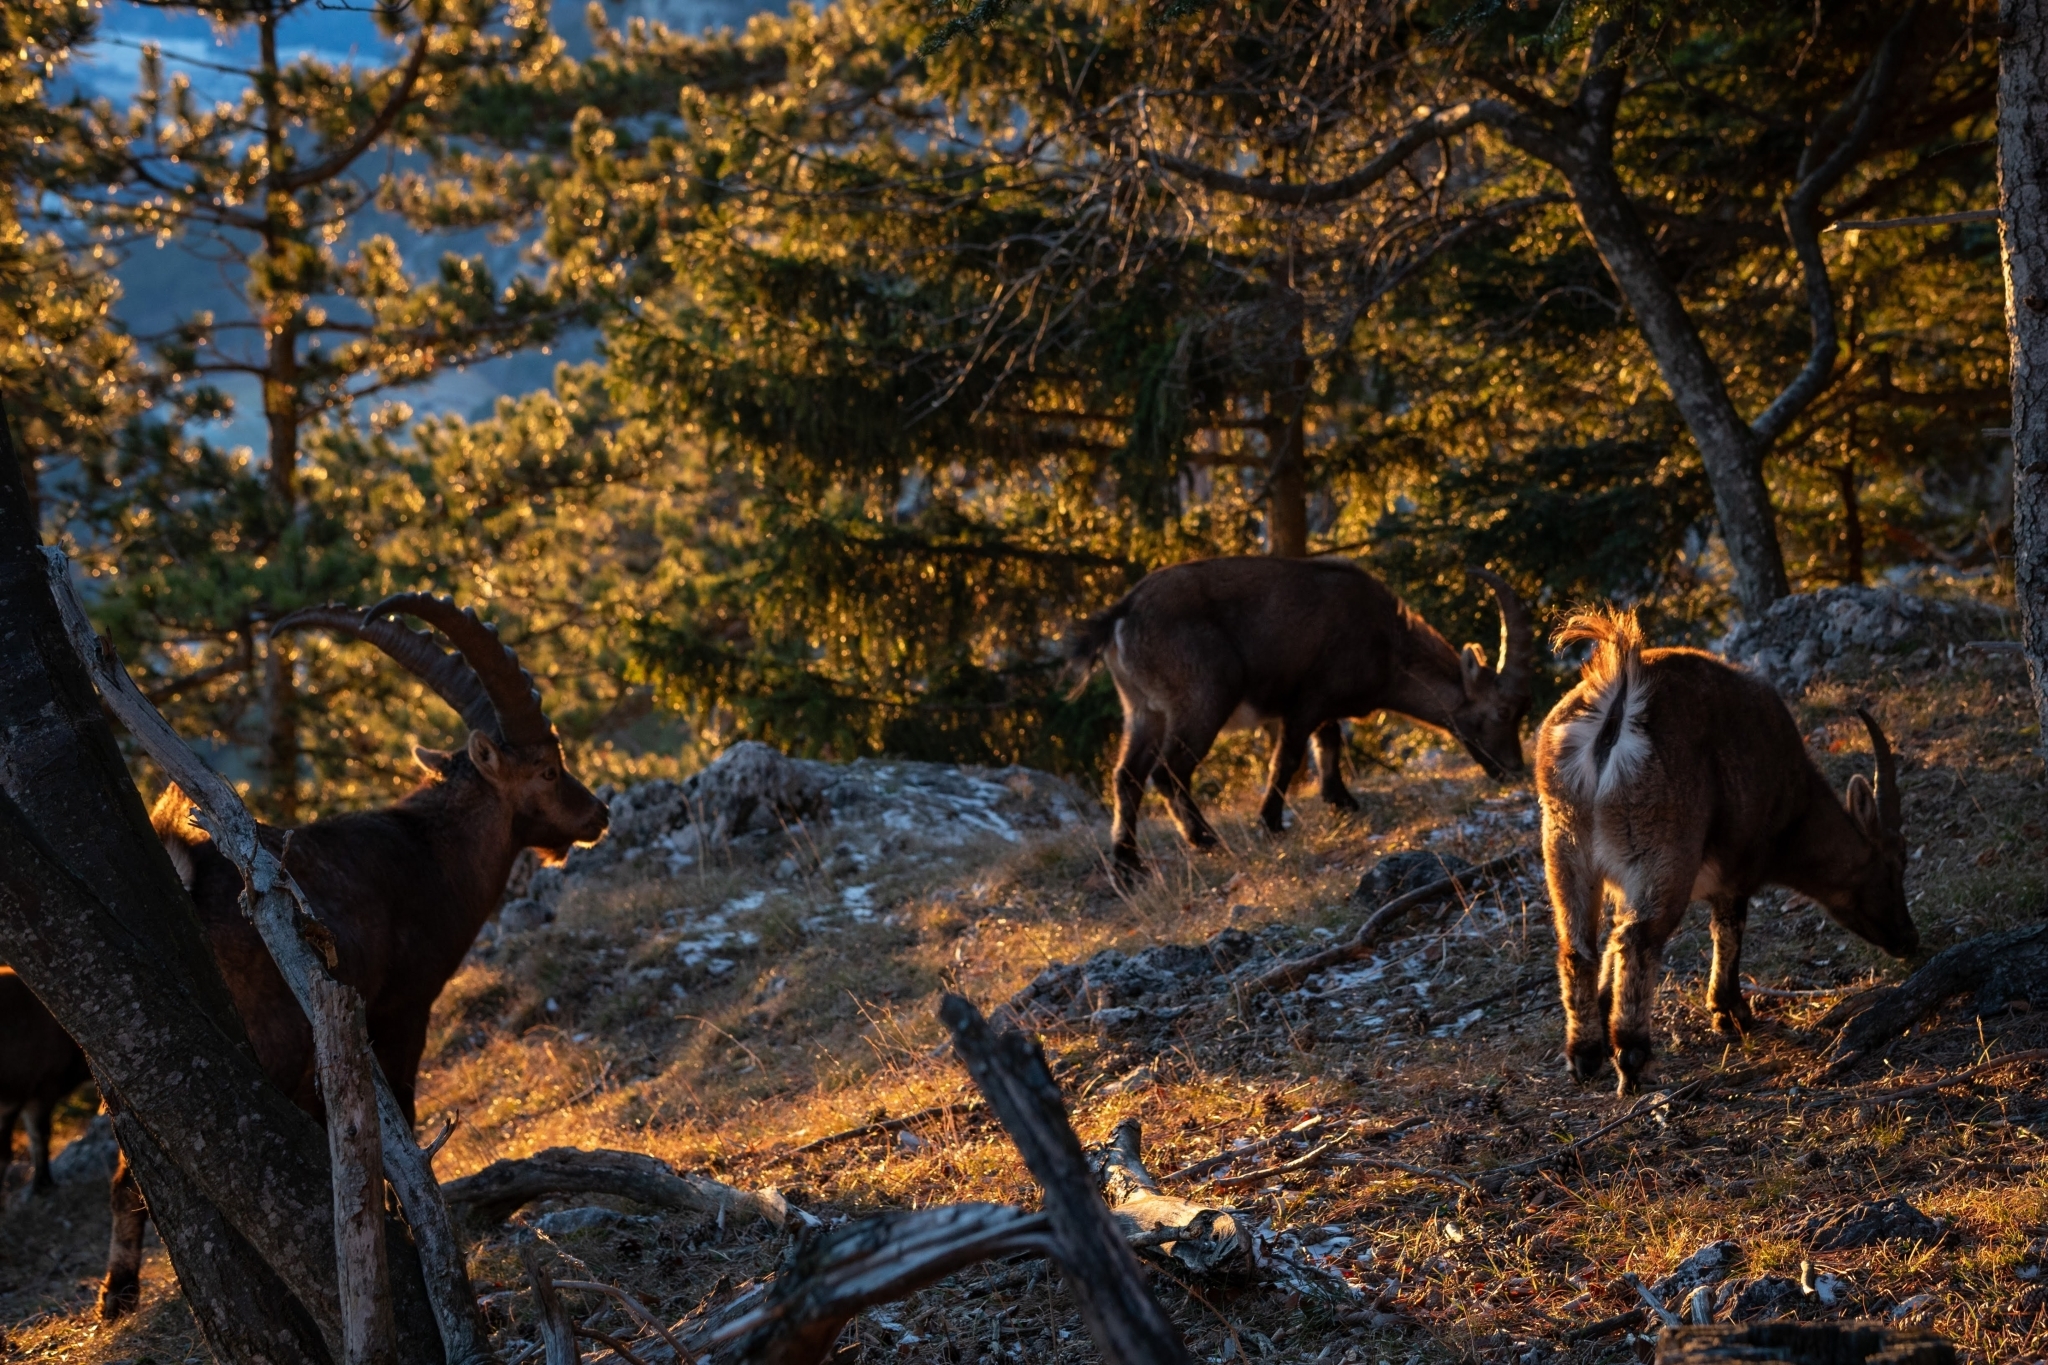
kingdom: Animalia
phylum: Chordata
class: Mammalia
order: Artiodactyla
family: Bovidae
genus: Capra
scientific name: Capra ibex
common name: Alpine ibex
